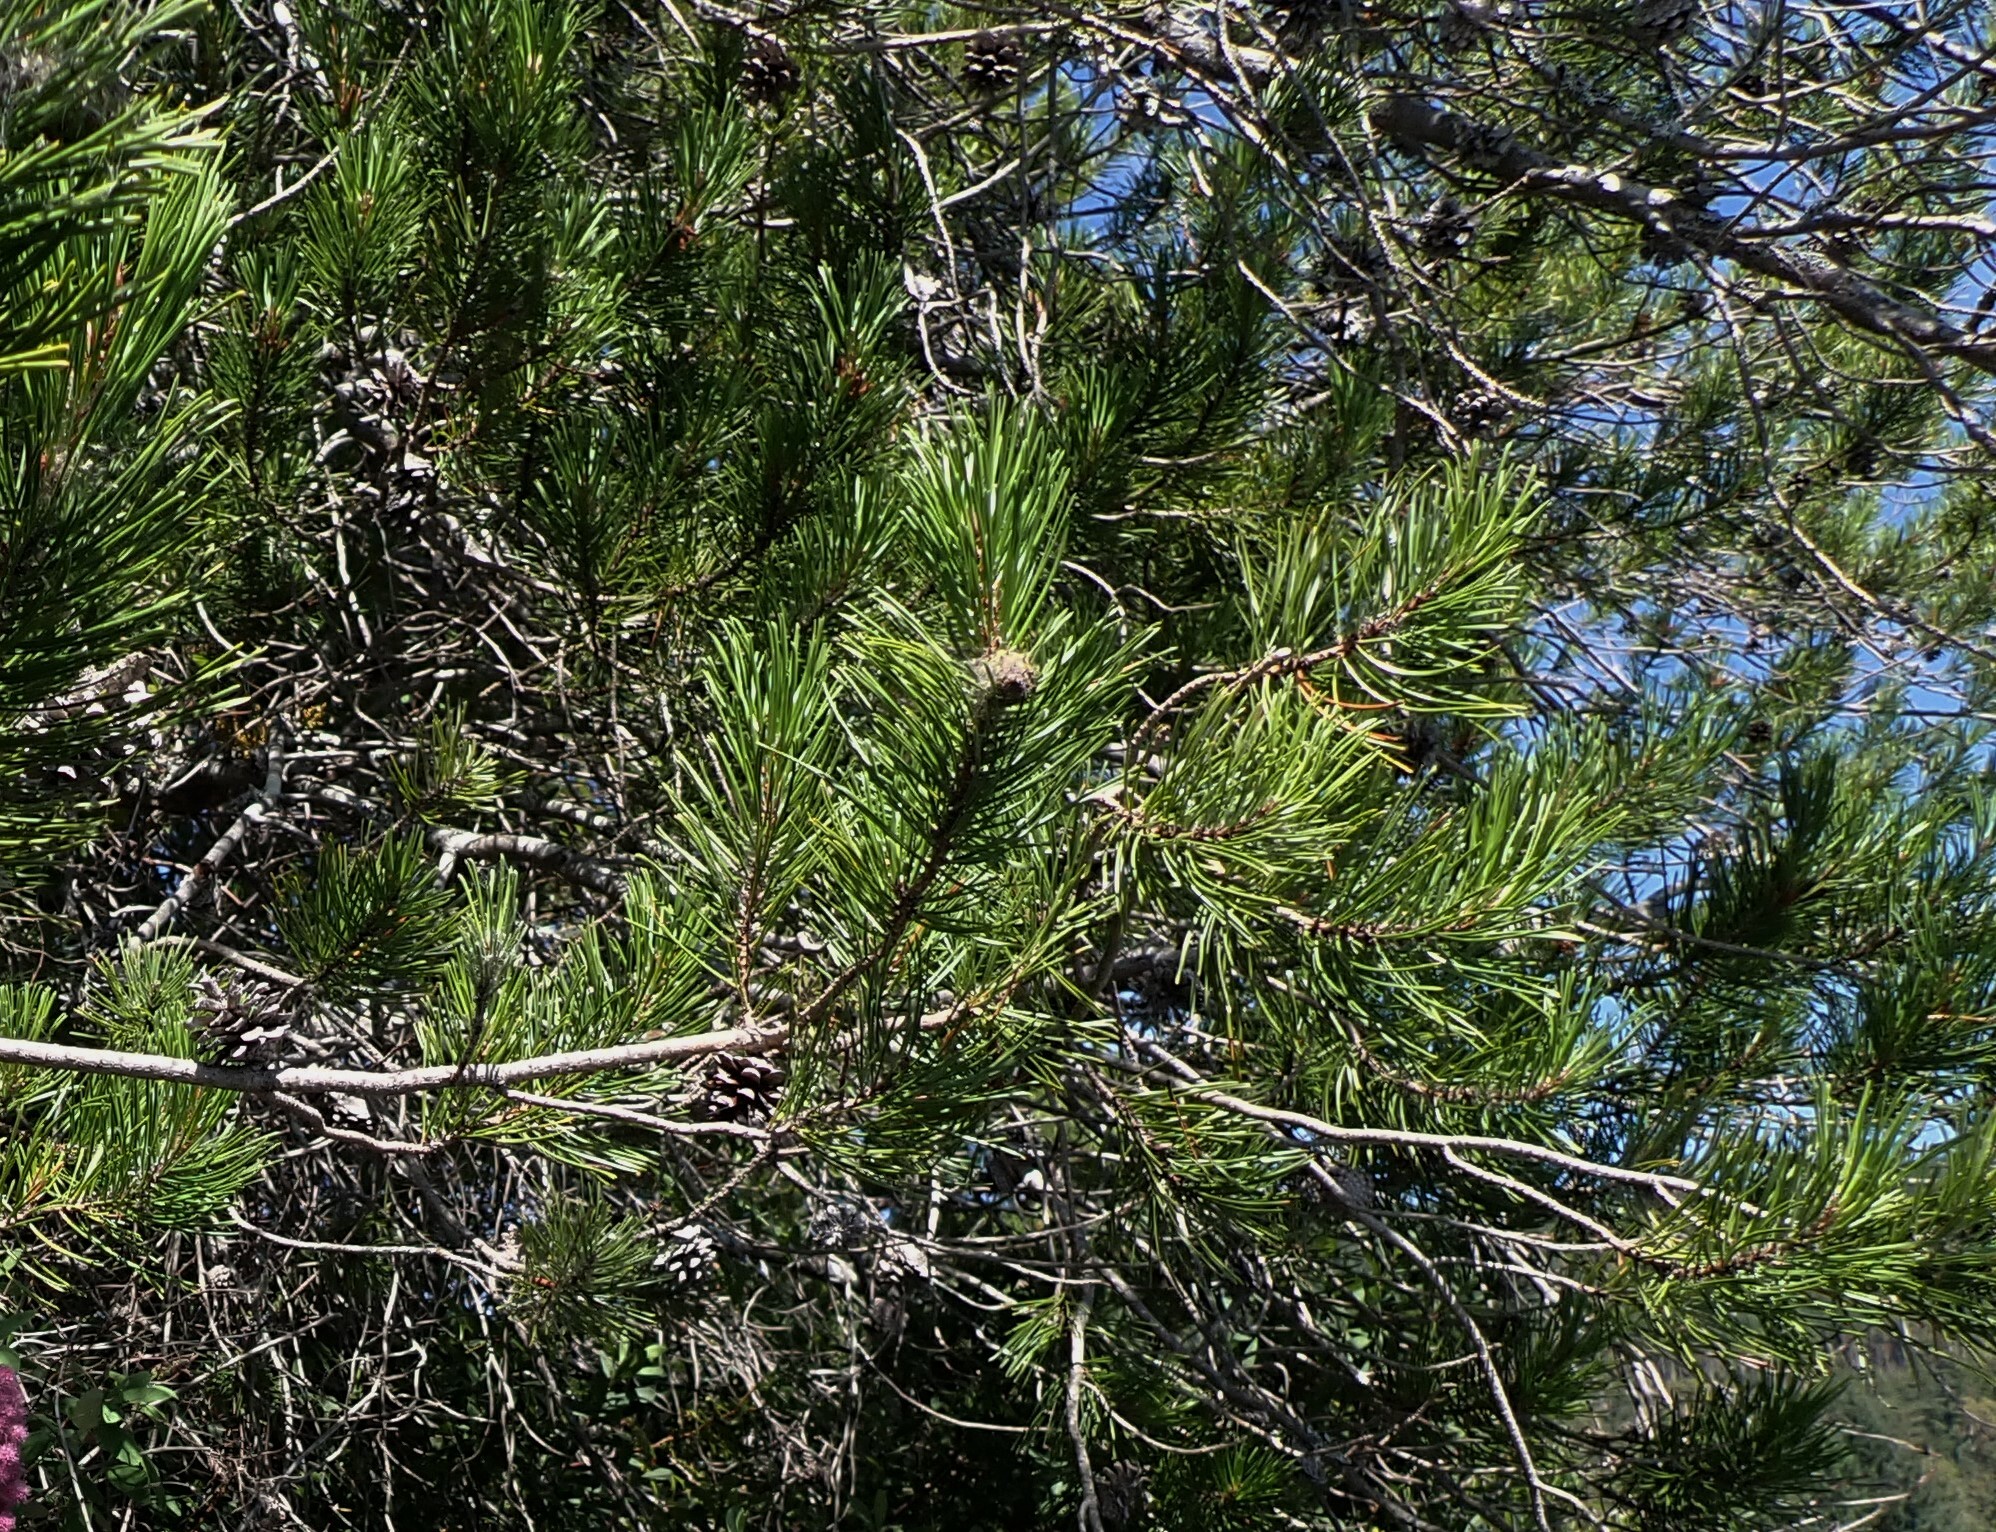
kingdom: Plantae
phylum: Tracheophyta
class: Pinopsida
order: Pinales
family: Pinaceae
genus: Pinus
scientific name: Pinus contorta
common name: Lodgepole pine
